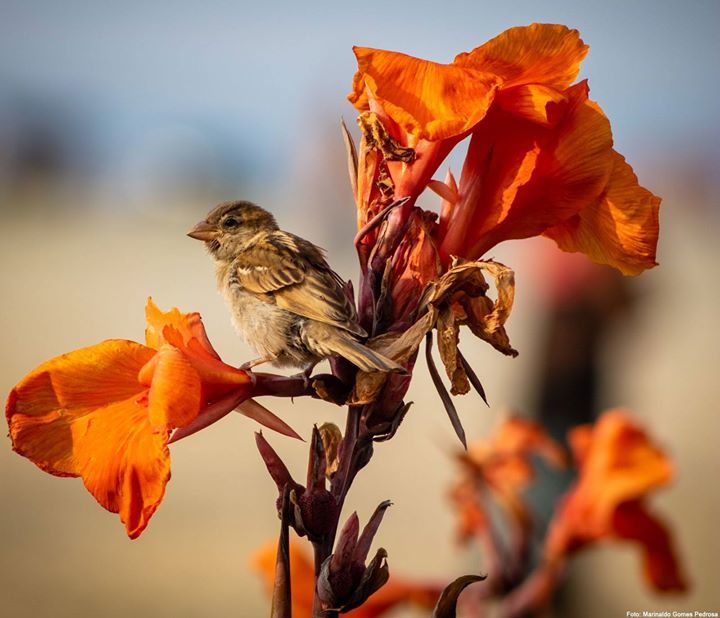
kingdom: Animalia
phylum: Chordata
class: Aves
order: Passeriformes
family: Passeridae
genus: Passer
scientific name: Passer domesticus
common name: House sparrow
